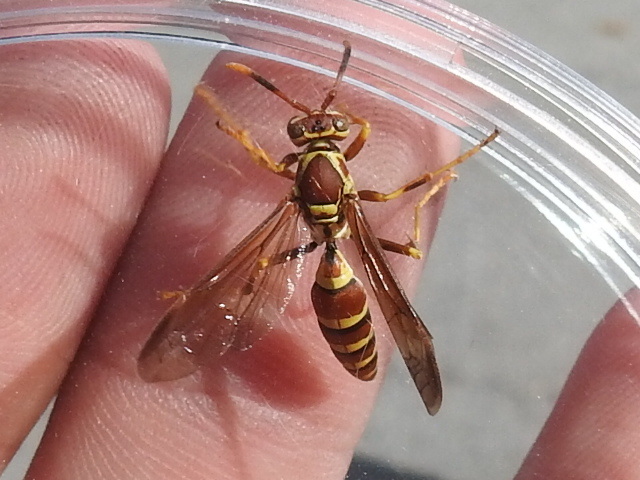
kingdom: Animalia
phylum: Arthropoda
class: Insecta
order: Hymenoptera
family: Eumenidae
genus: Polistes
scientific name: Polistes exclamans
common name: Paper wasp
